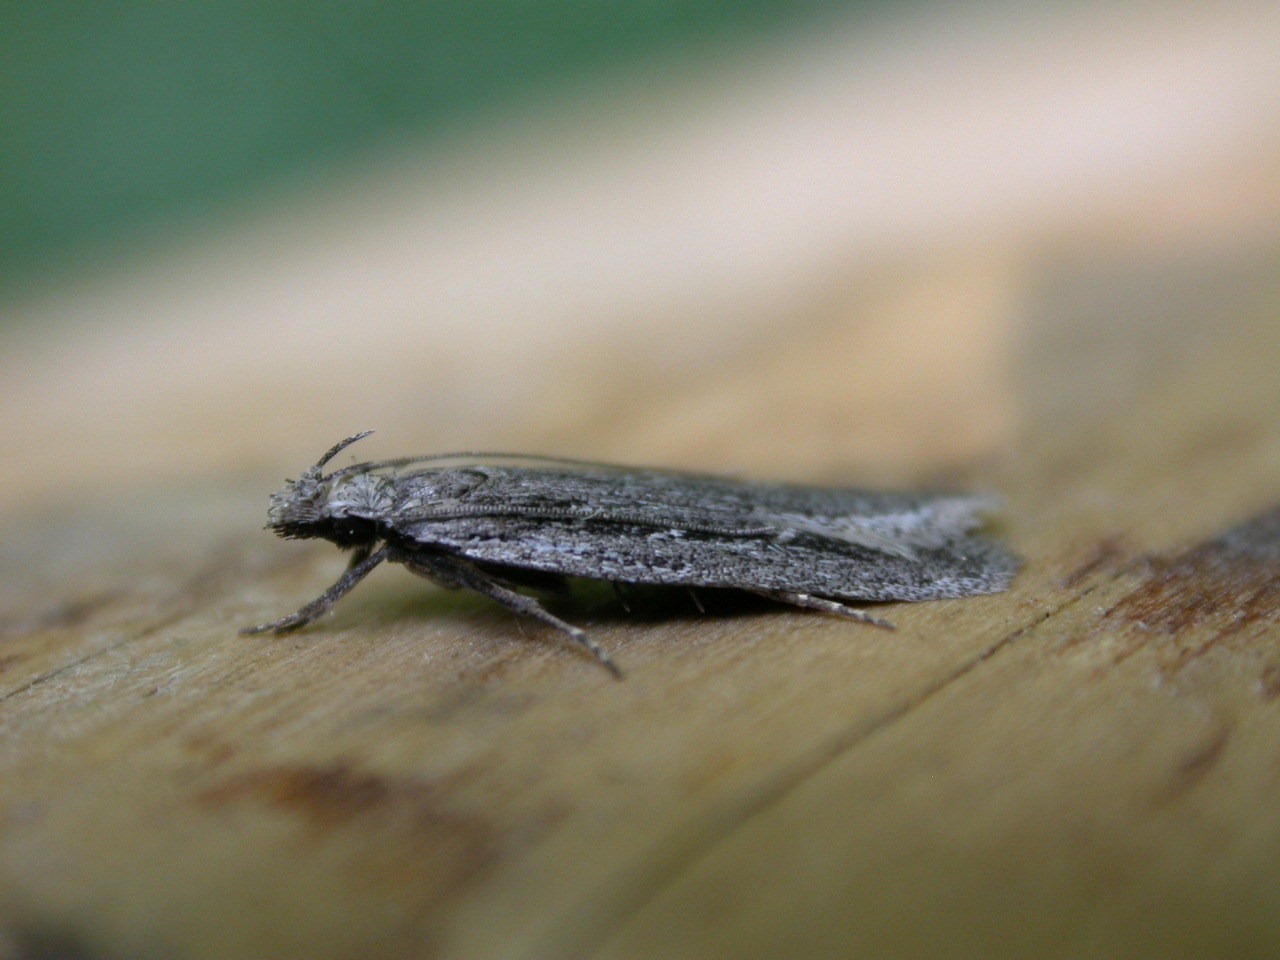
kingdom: Animalia
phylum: Arthropoda
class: Insecta
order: Lepidoptera
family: Gelechiidae
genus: Gelechia
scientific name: Gelechia sabinellus
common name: Juniper groundling
